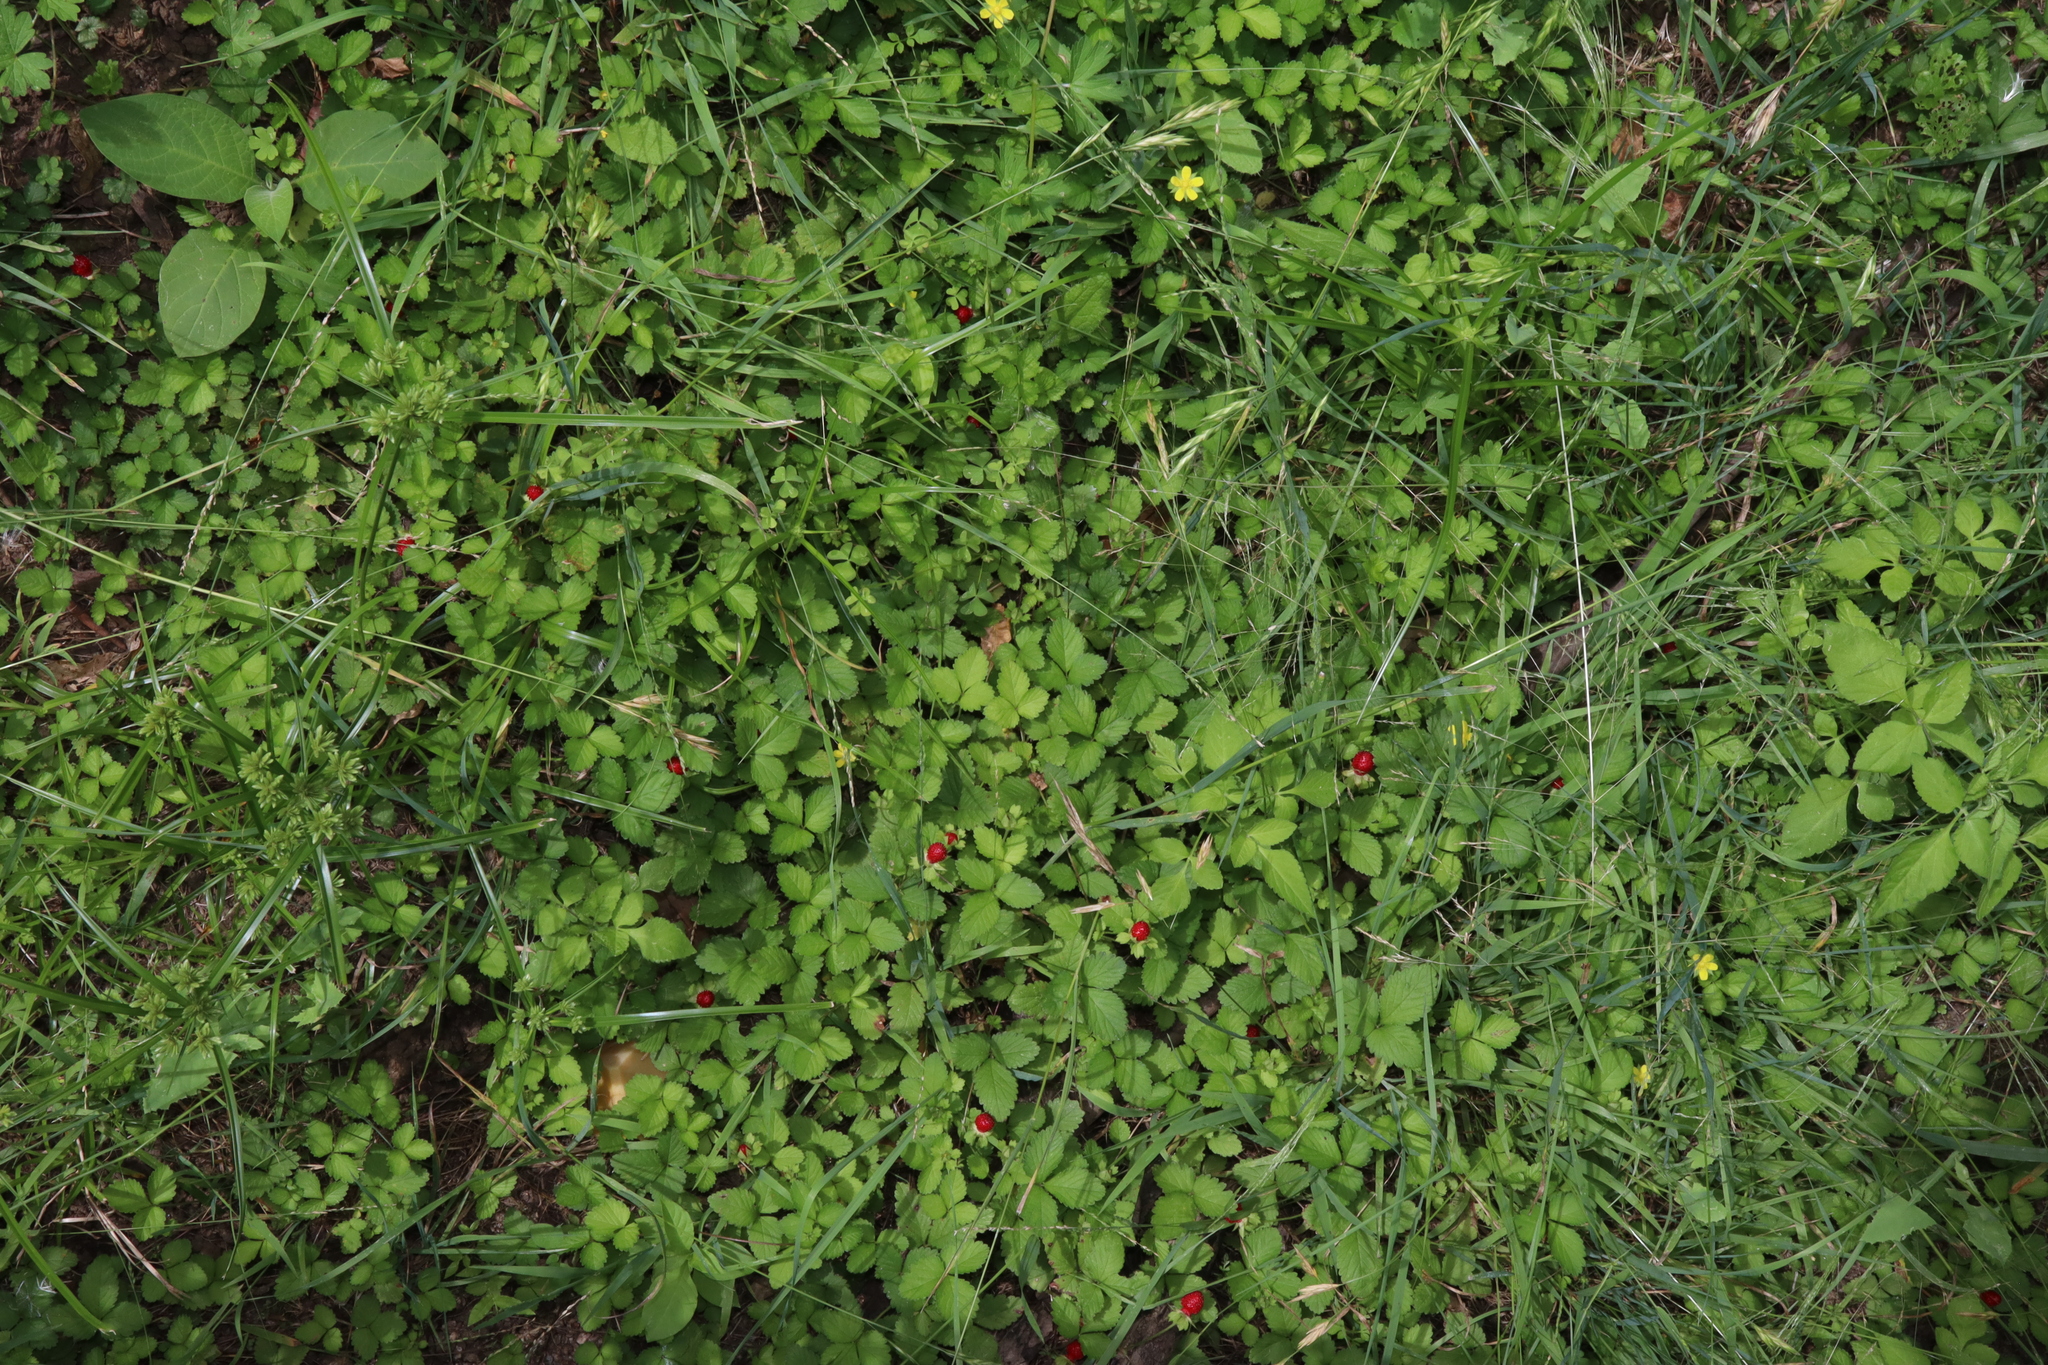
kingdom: Plantae
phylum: Tracheophyta
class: Magnoliopsida
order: Rosales
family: Rosaceae
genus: Potentilla
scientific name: Potentilla indica
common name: Yellow-flowered strawberry
